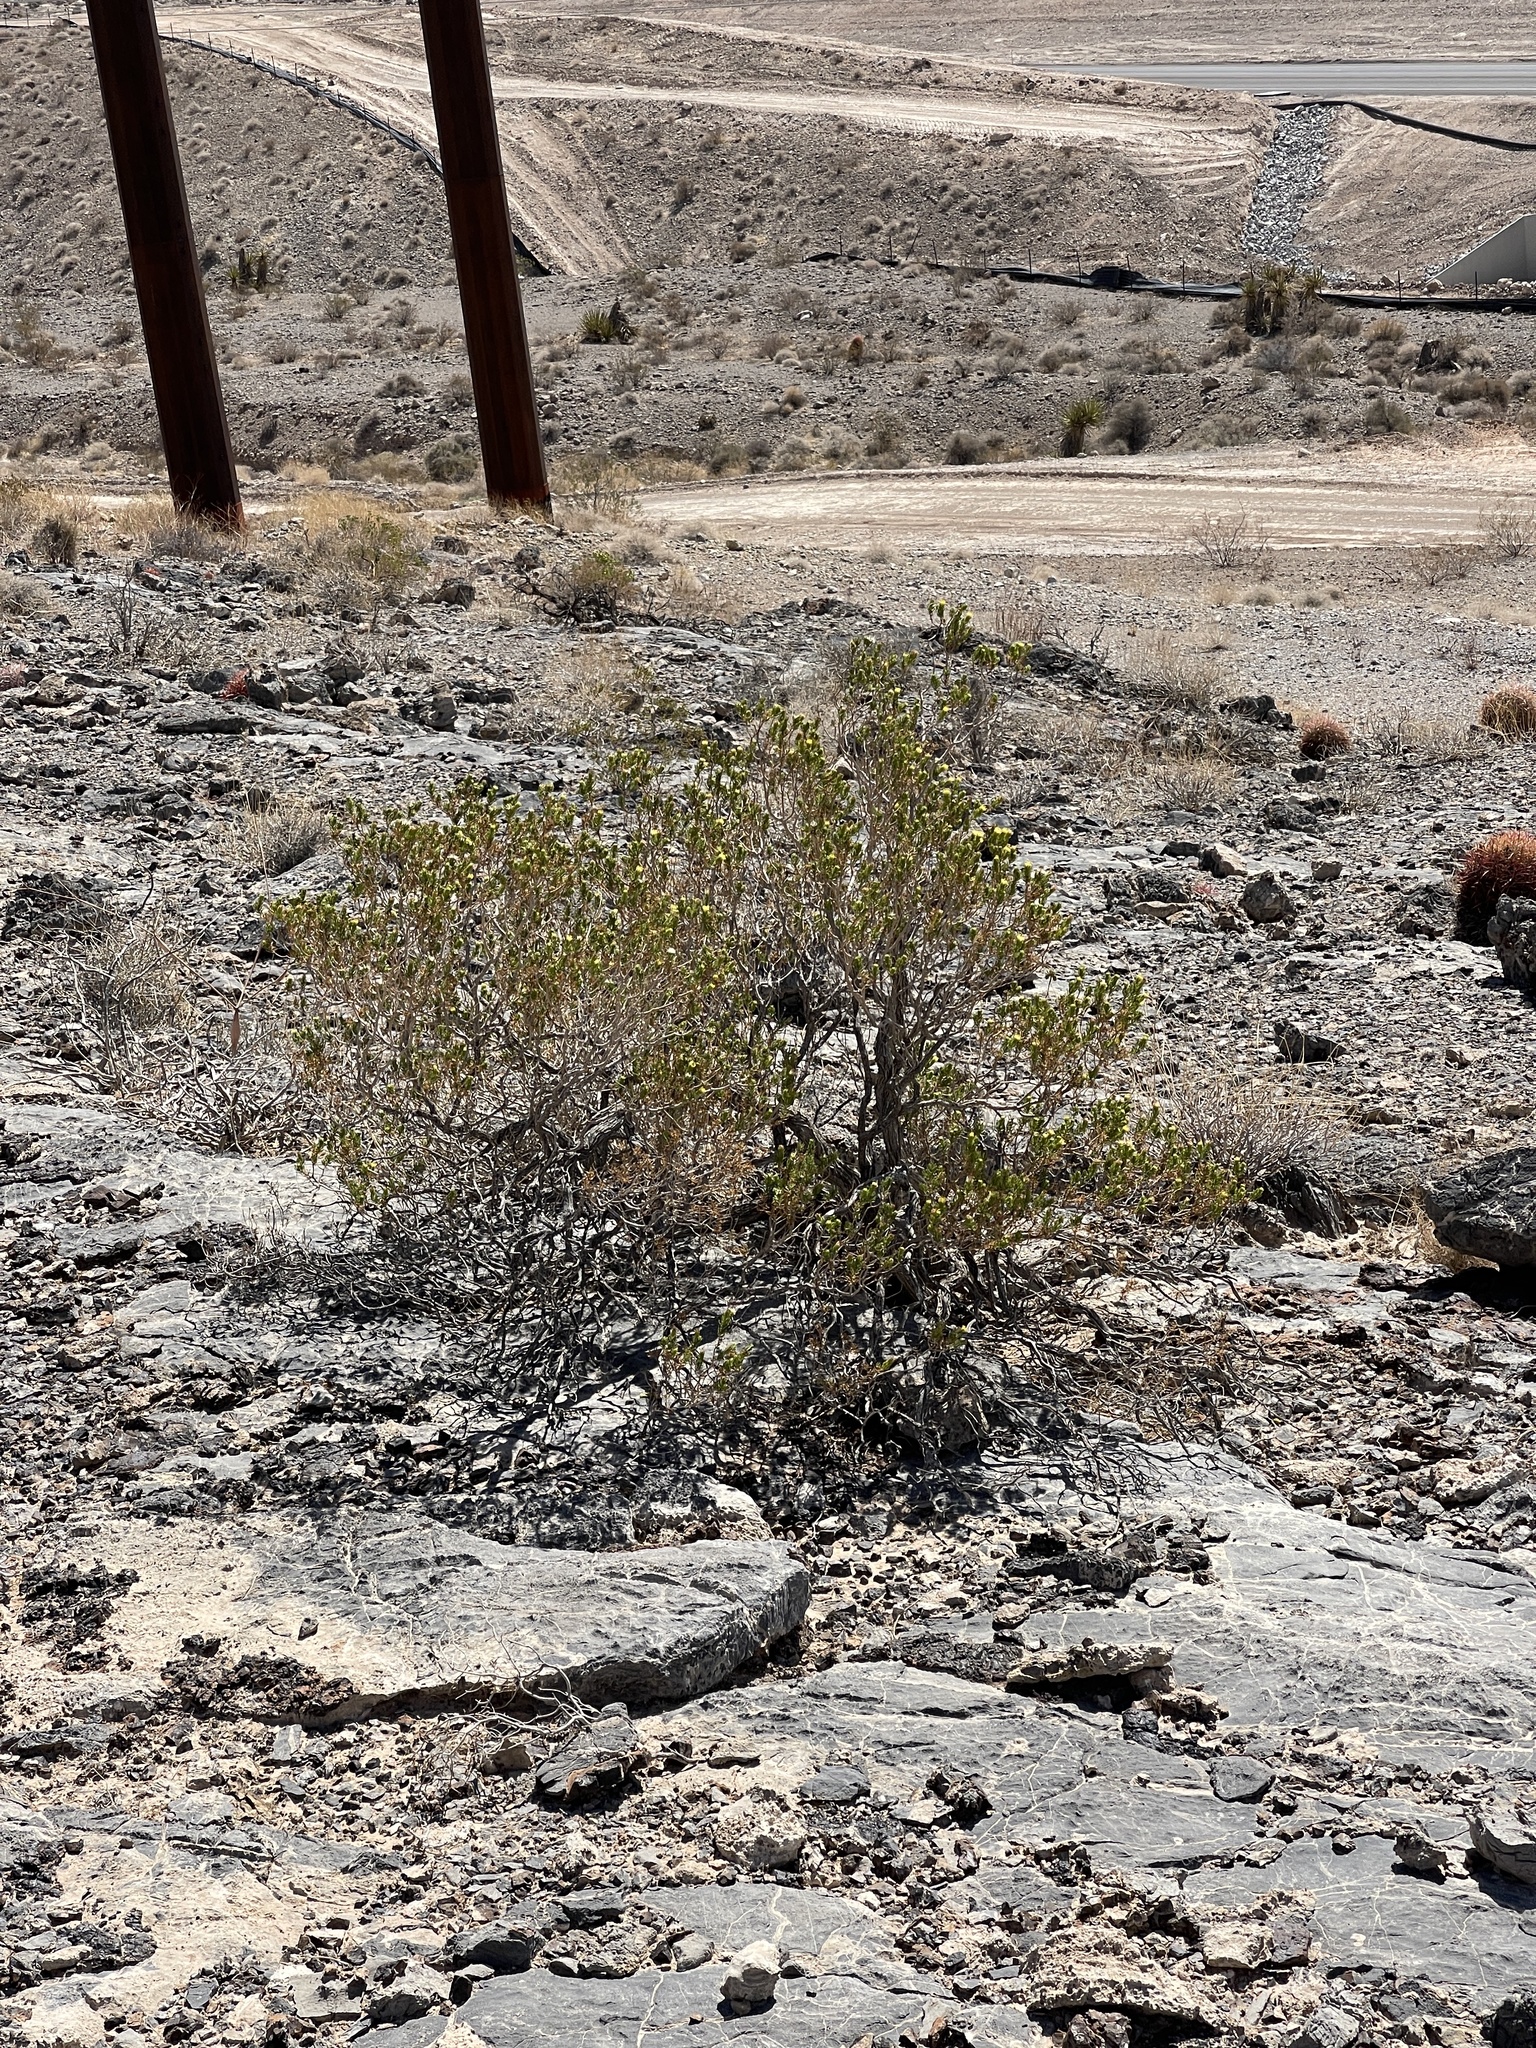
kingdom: Plantae
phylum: Tracheophyta
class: Magnoliopsida
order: Asterales
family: Asteraceae
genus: Peucephyllum
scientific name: Peucephyllum schottii
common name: Pygmy-cedar
